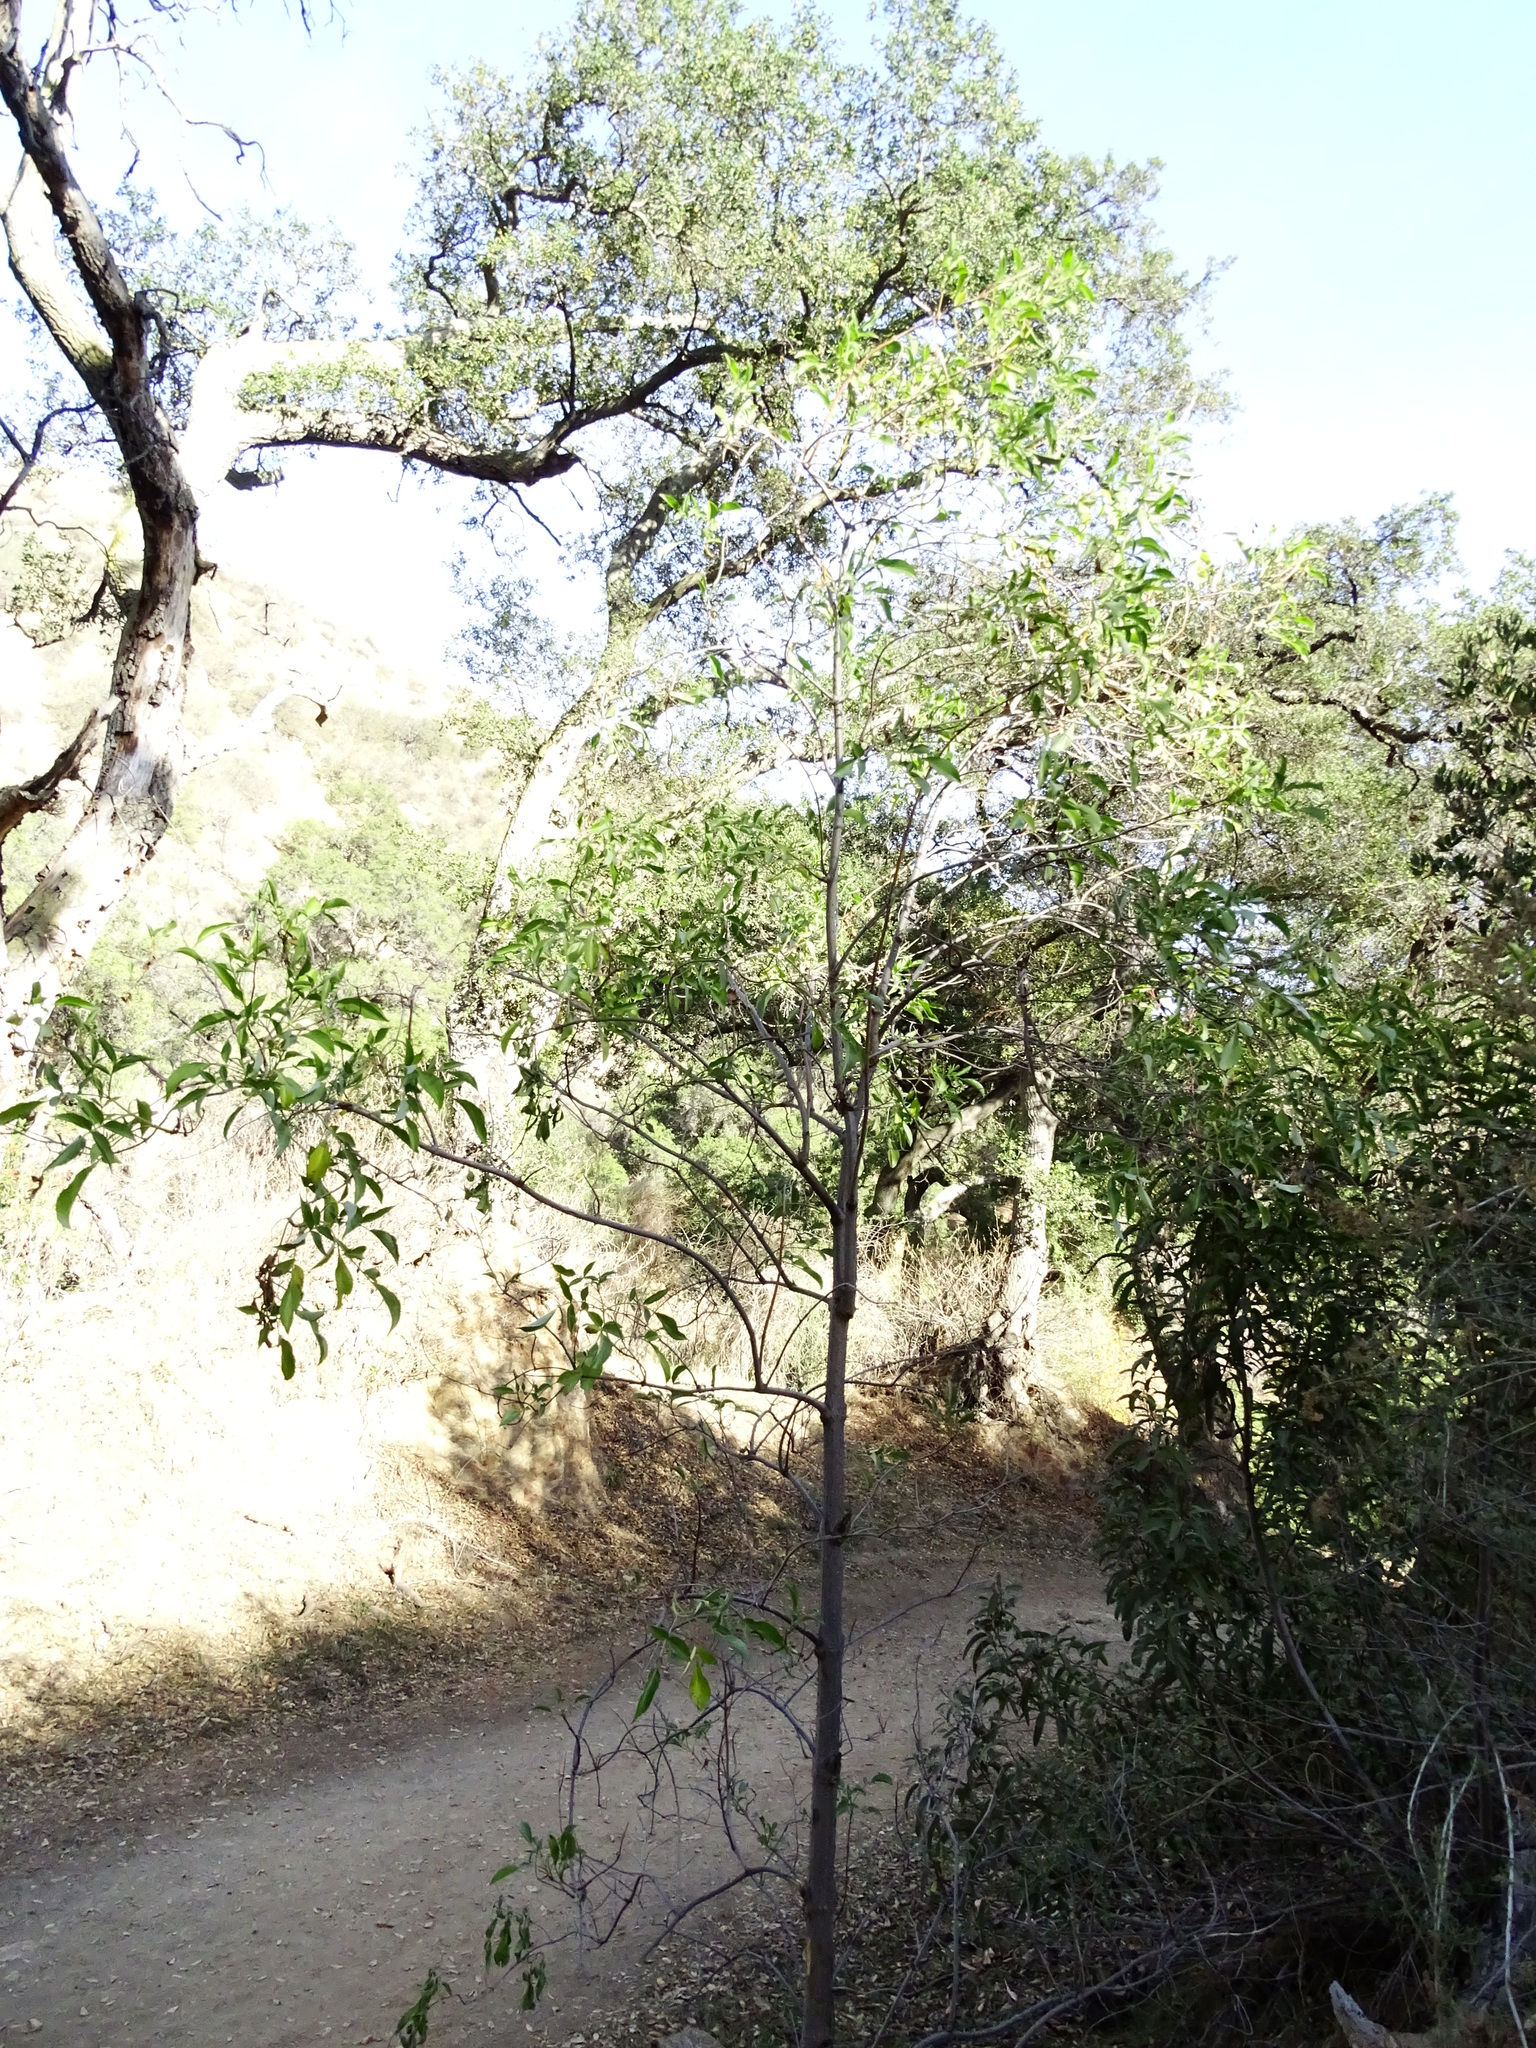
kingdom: Plantae
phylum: Tracheophyta
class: Magnoliopsida
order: Dipsacales
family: Viburnaceae
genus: Sambucus
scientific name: Sambucus cerulea
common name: Blue elder
